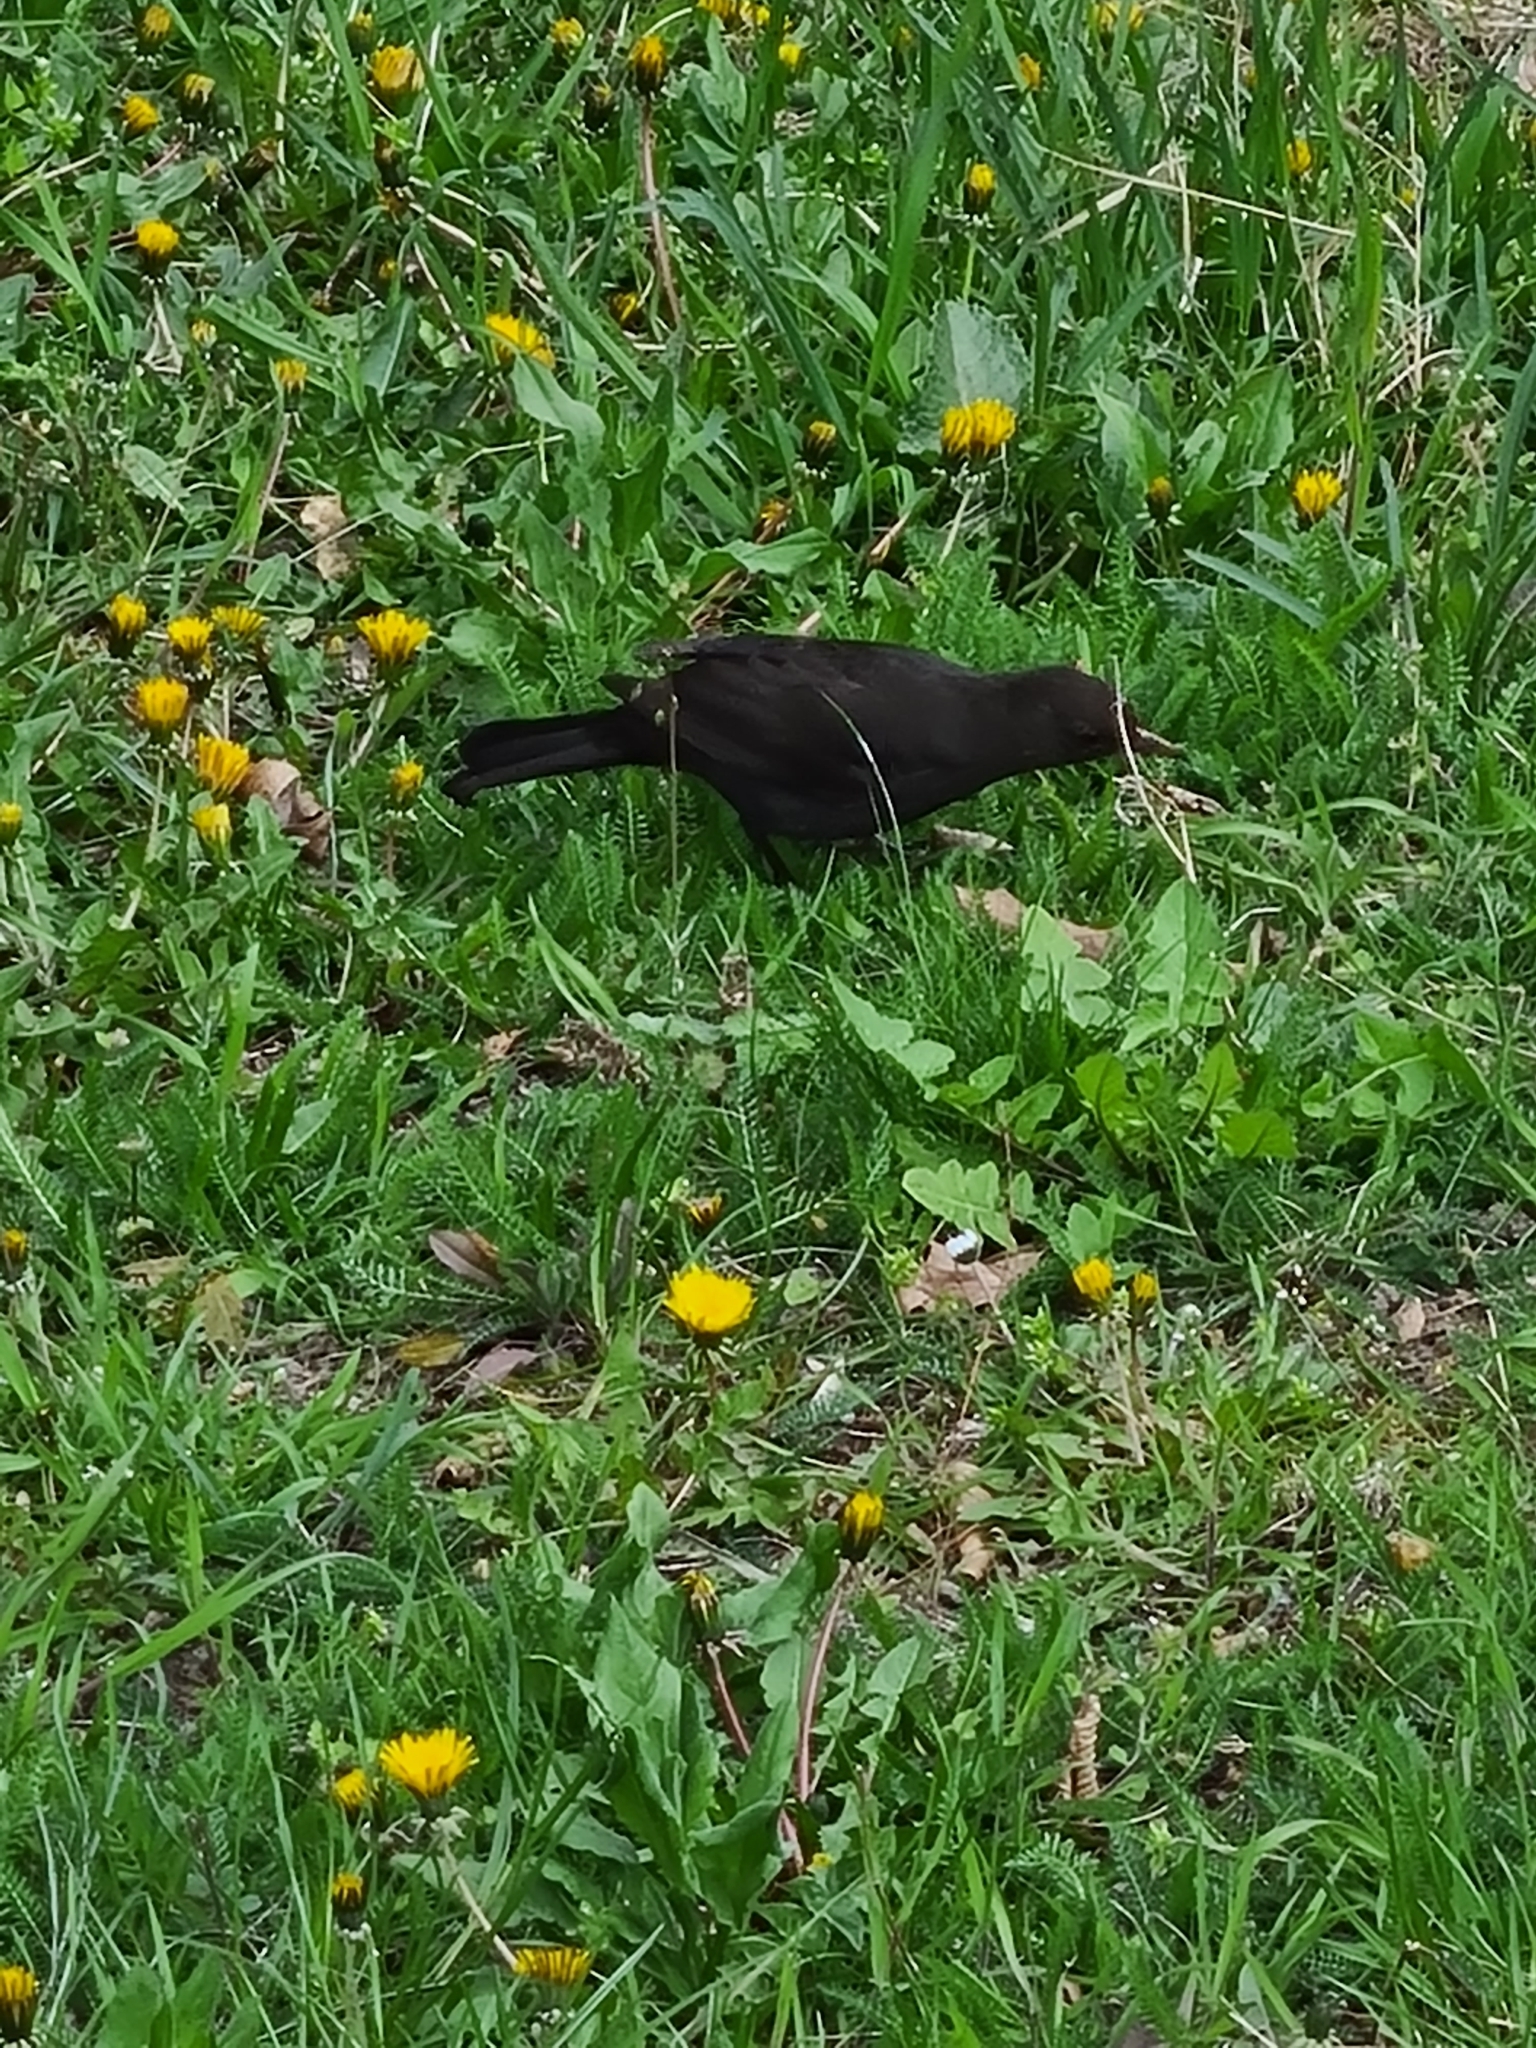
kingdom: Animalia
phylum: Chordata
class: Aves
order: Passeriformes
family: Turdidae
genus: Turdus
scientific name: Turdus merula
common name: Common blackbird
